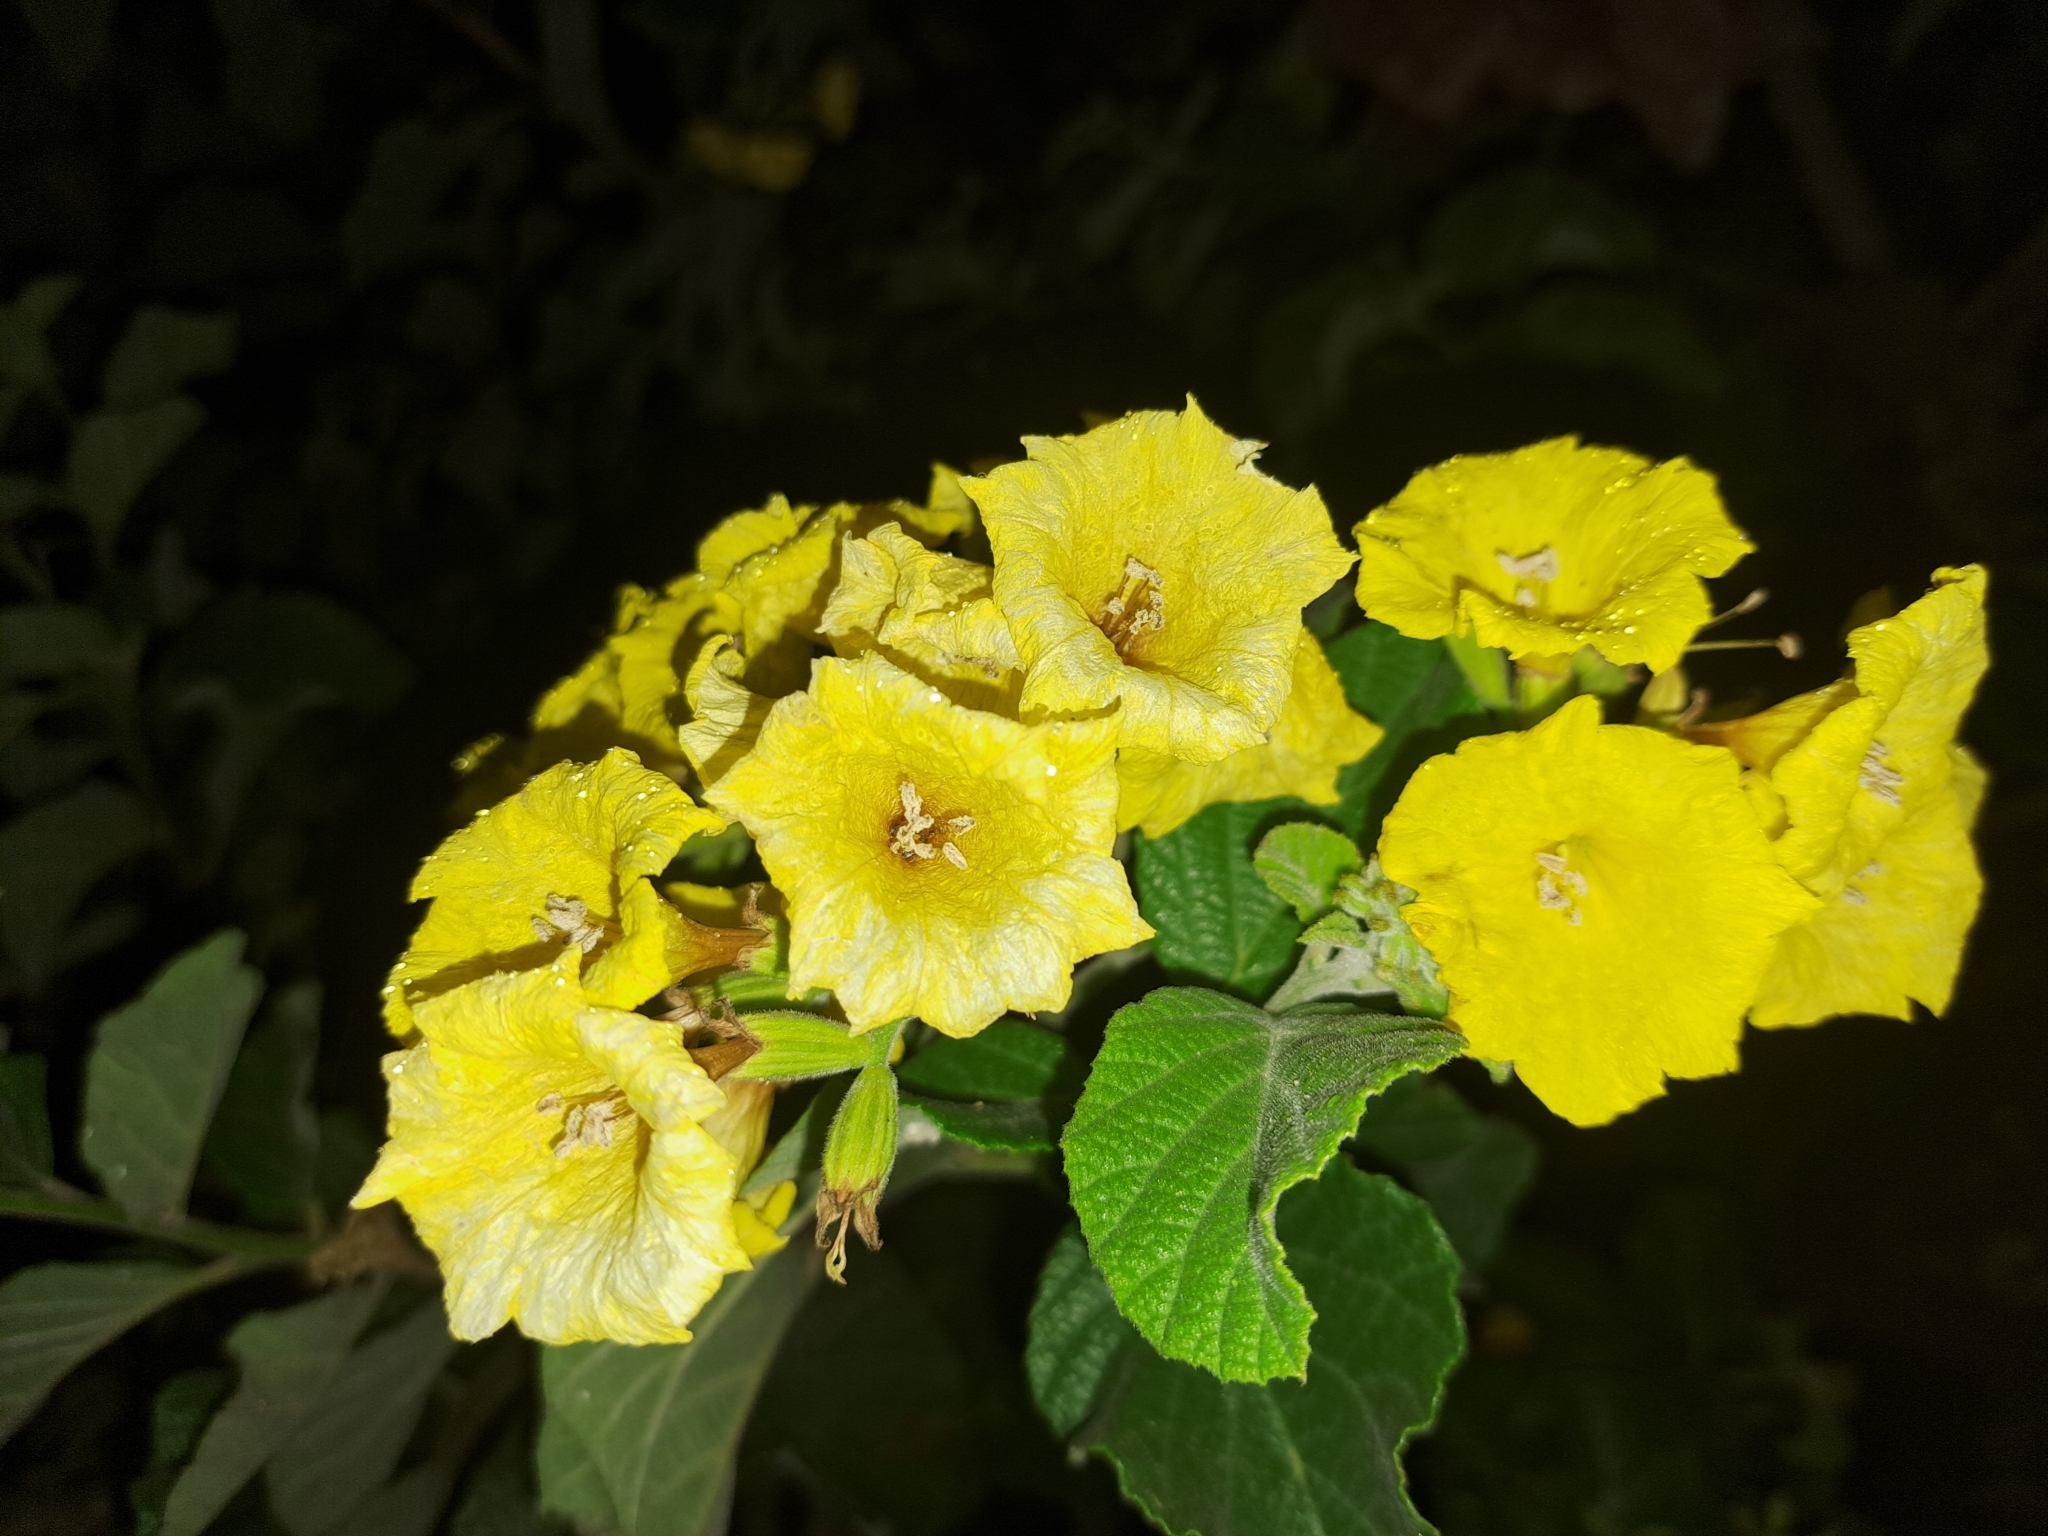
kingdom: Plantae
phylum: Tracheophyta
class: Magnoliopsida
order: Boraginales
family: Cordiaceae
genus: Cordia
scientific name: Cordia lutea
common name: Yellow geiger
